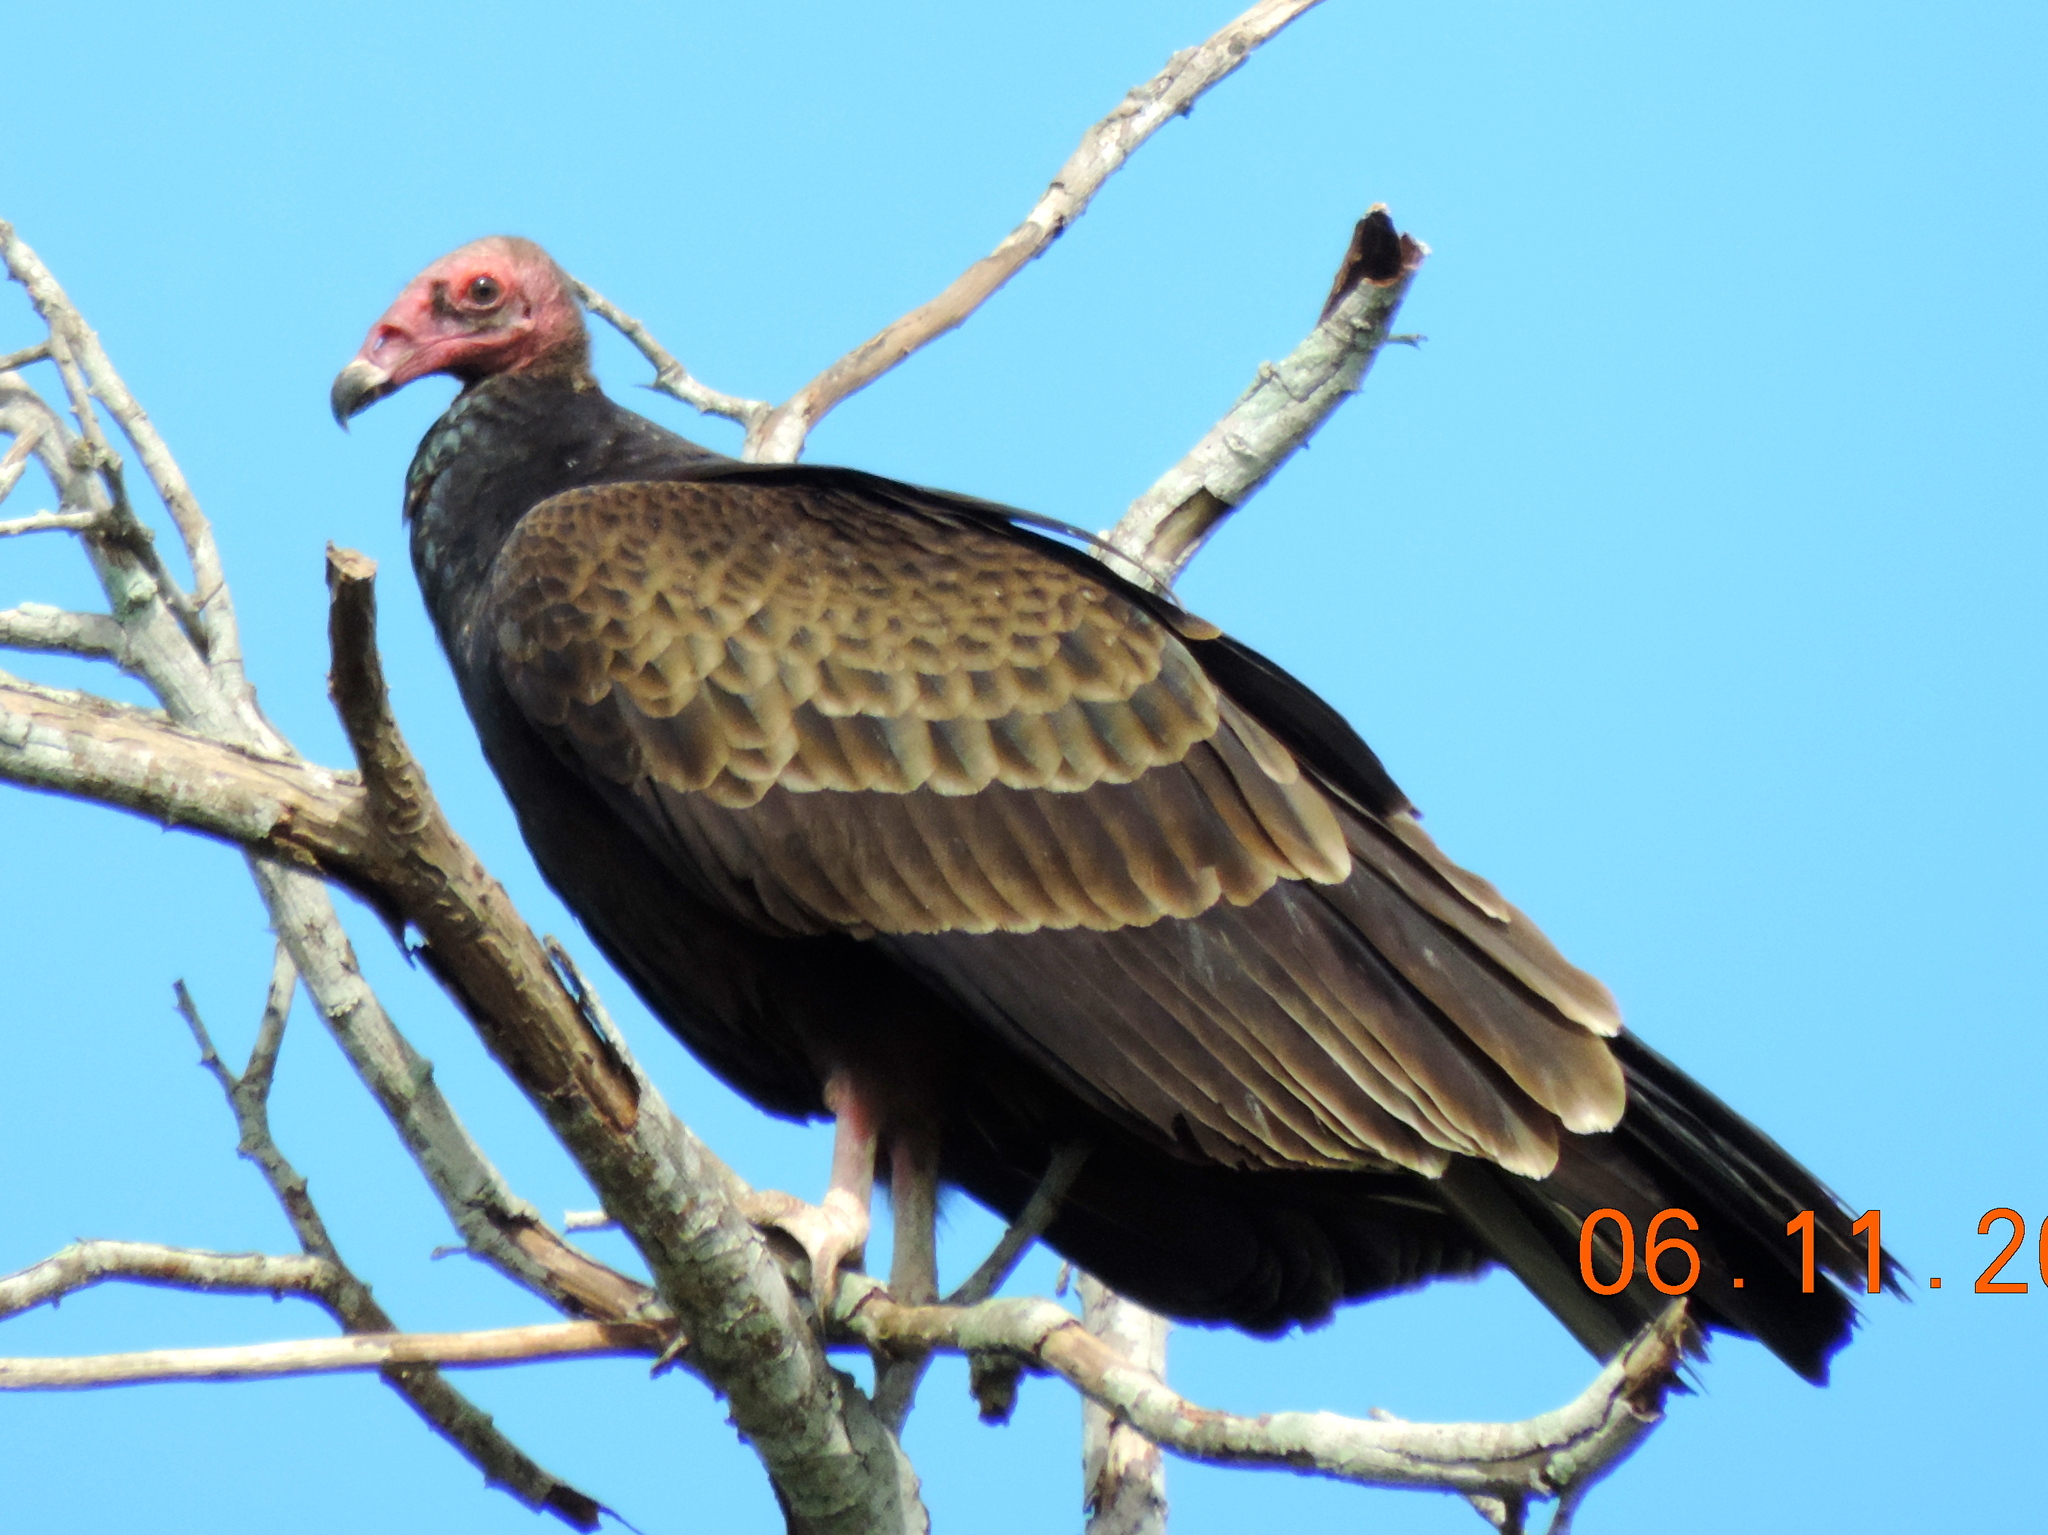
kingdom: Animalia
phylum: Chordata
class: Aves
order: Accipitriformes
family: Cathartidae
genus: Cathartes
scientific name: Cathartes aura
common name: Turkey vulture
